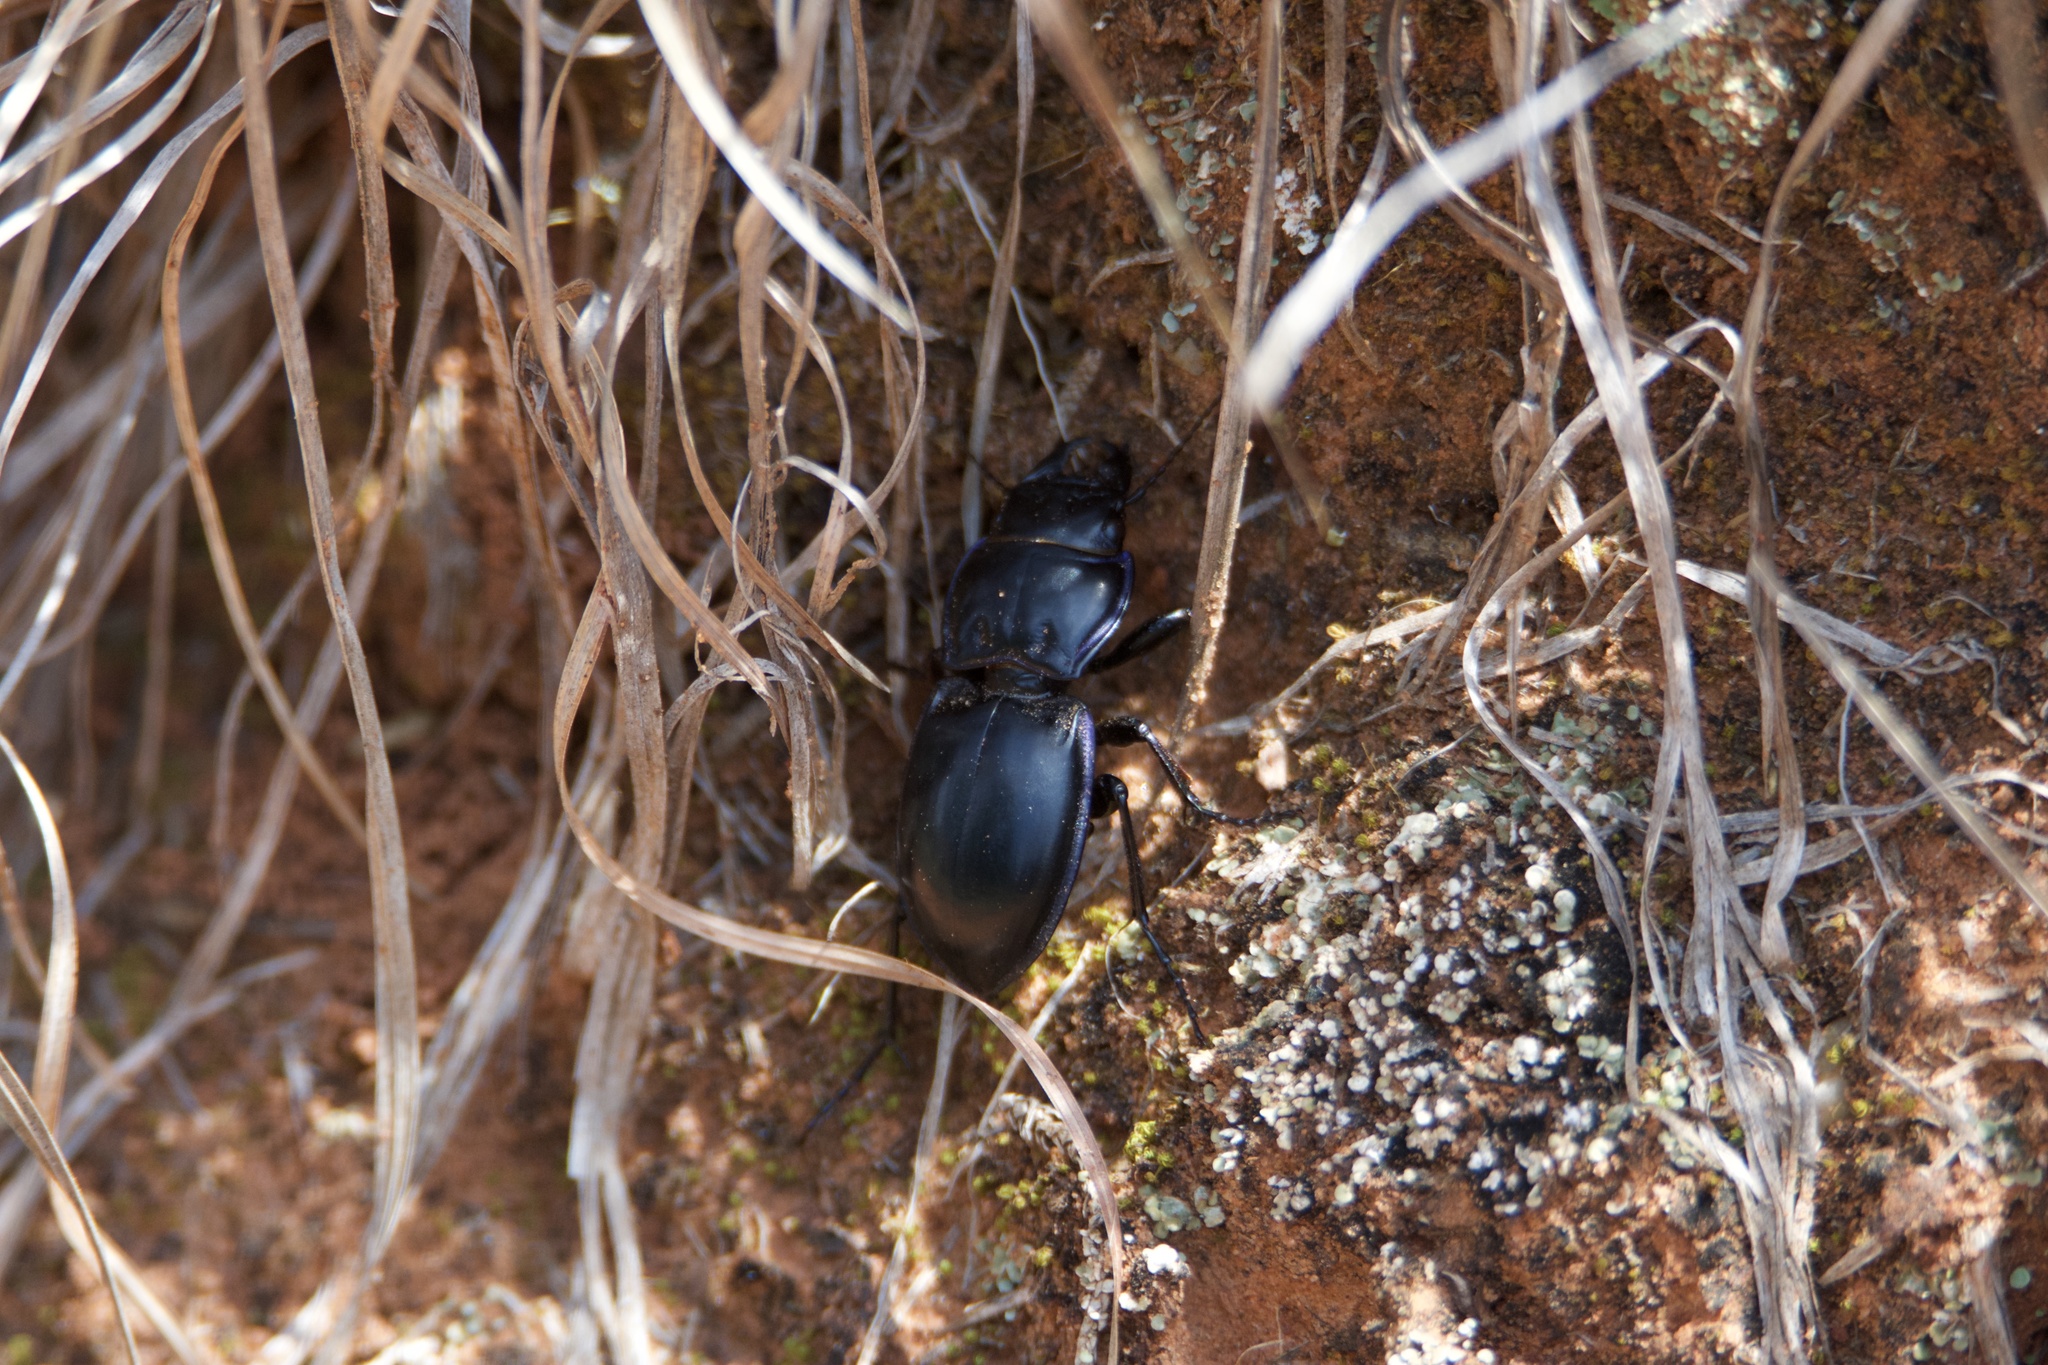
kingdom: Animalia
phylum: Arthropoda
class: Insecta
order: Coleoptera
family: Carabidae
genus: Scarites
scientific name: Scarites subterraneus
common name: Big-headed ground beetle
